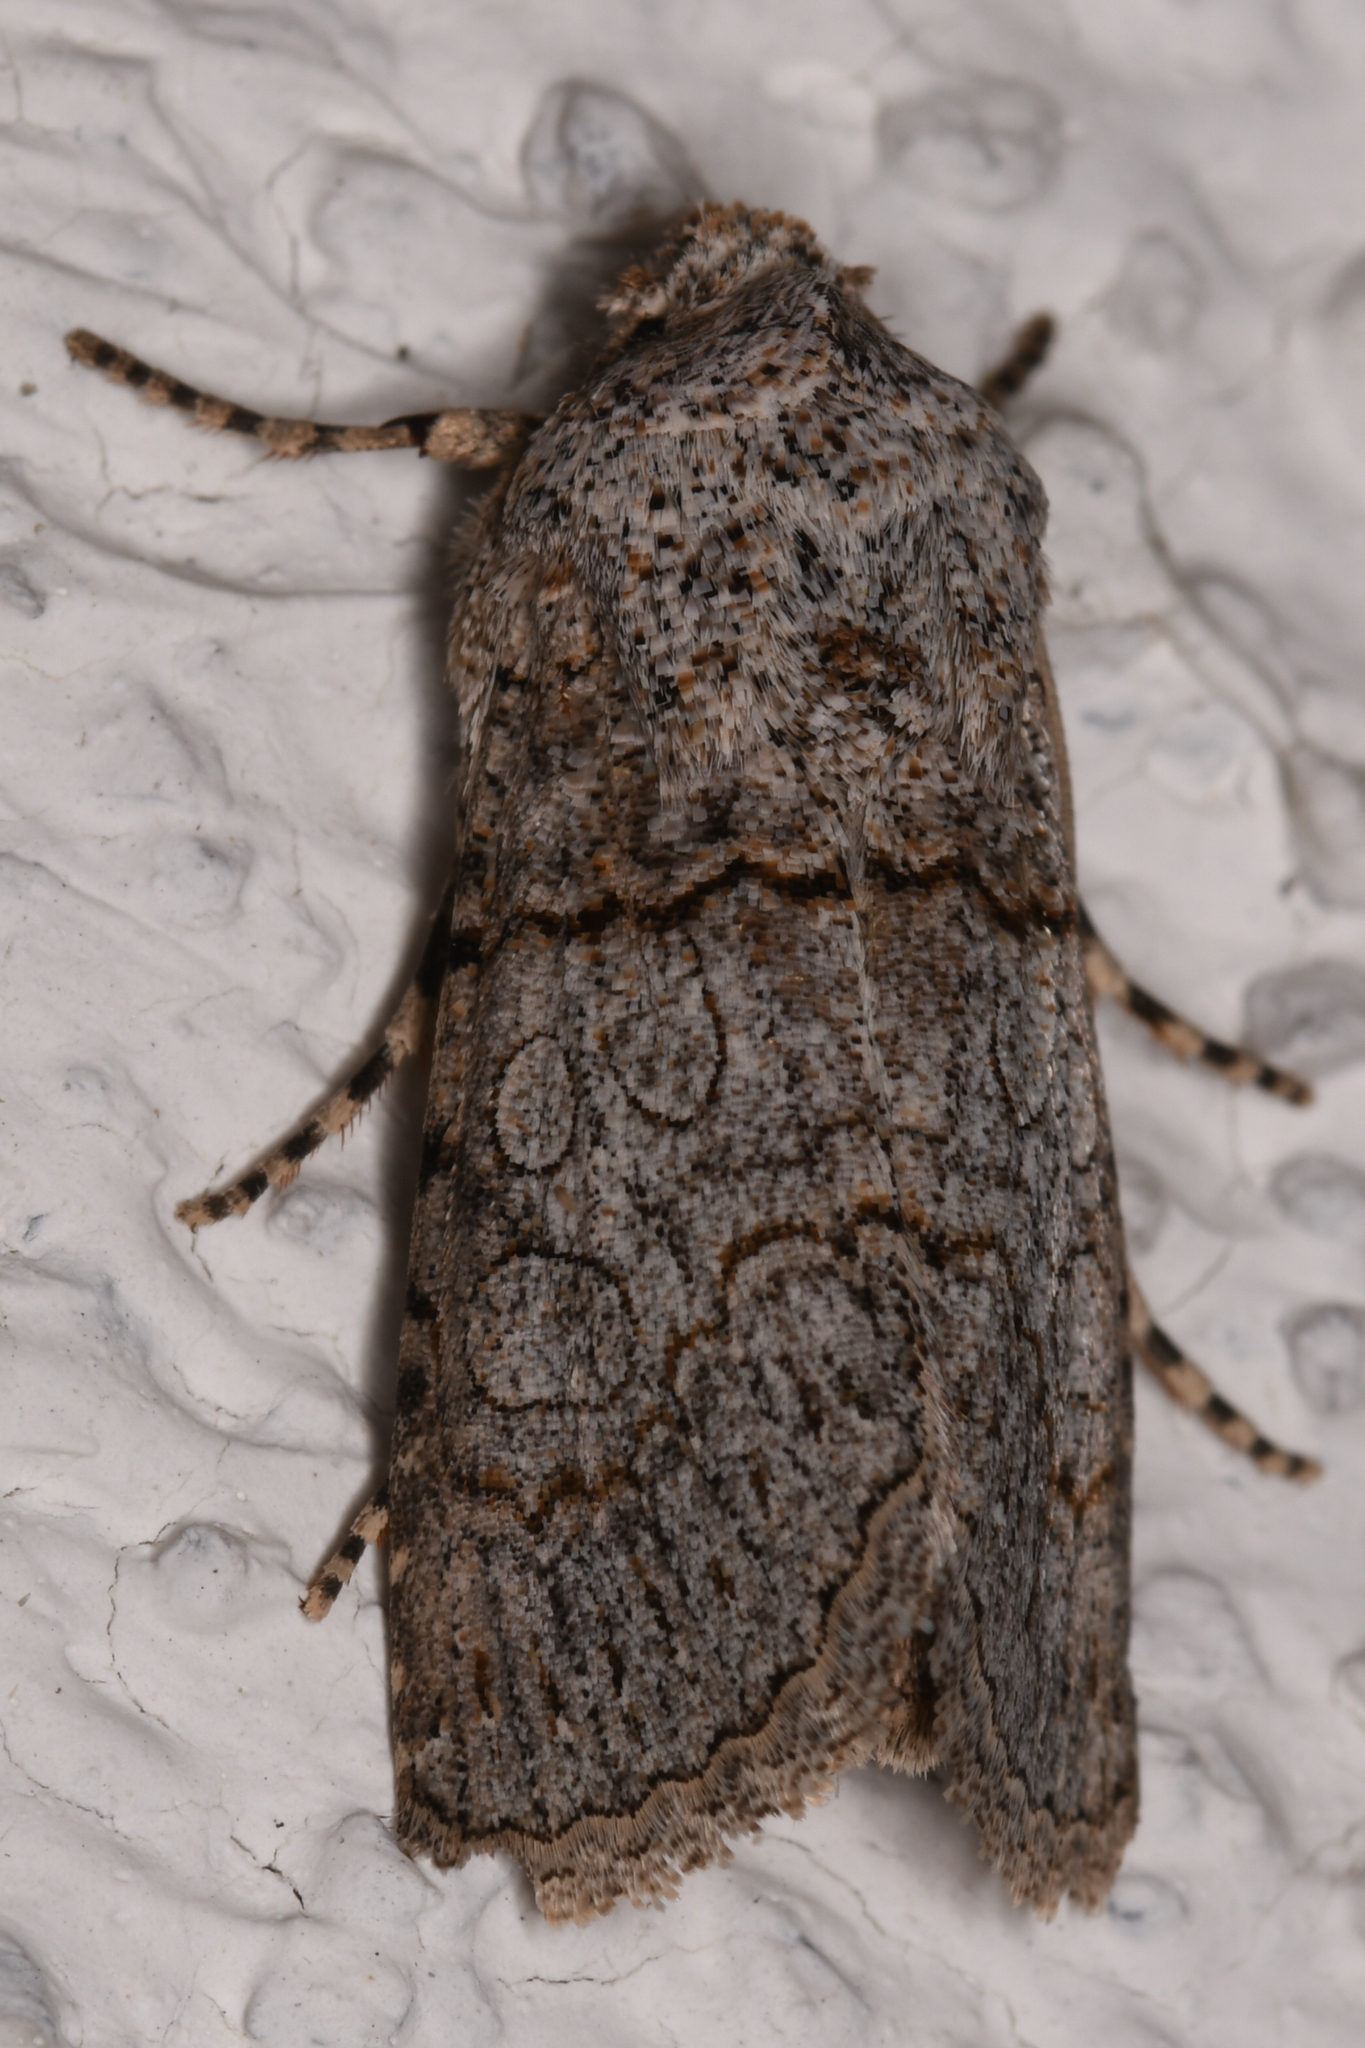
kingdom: Animalia
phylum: Arthropoda
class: Insecta
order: Lepidoptera
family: Noctuidae
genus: Sympistis
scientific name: Sympistis perscripta
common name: Scribbled sallow
